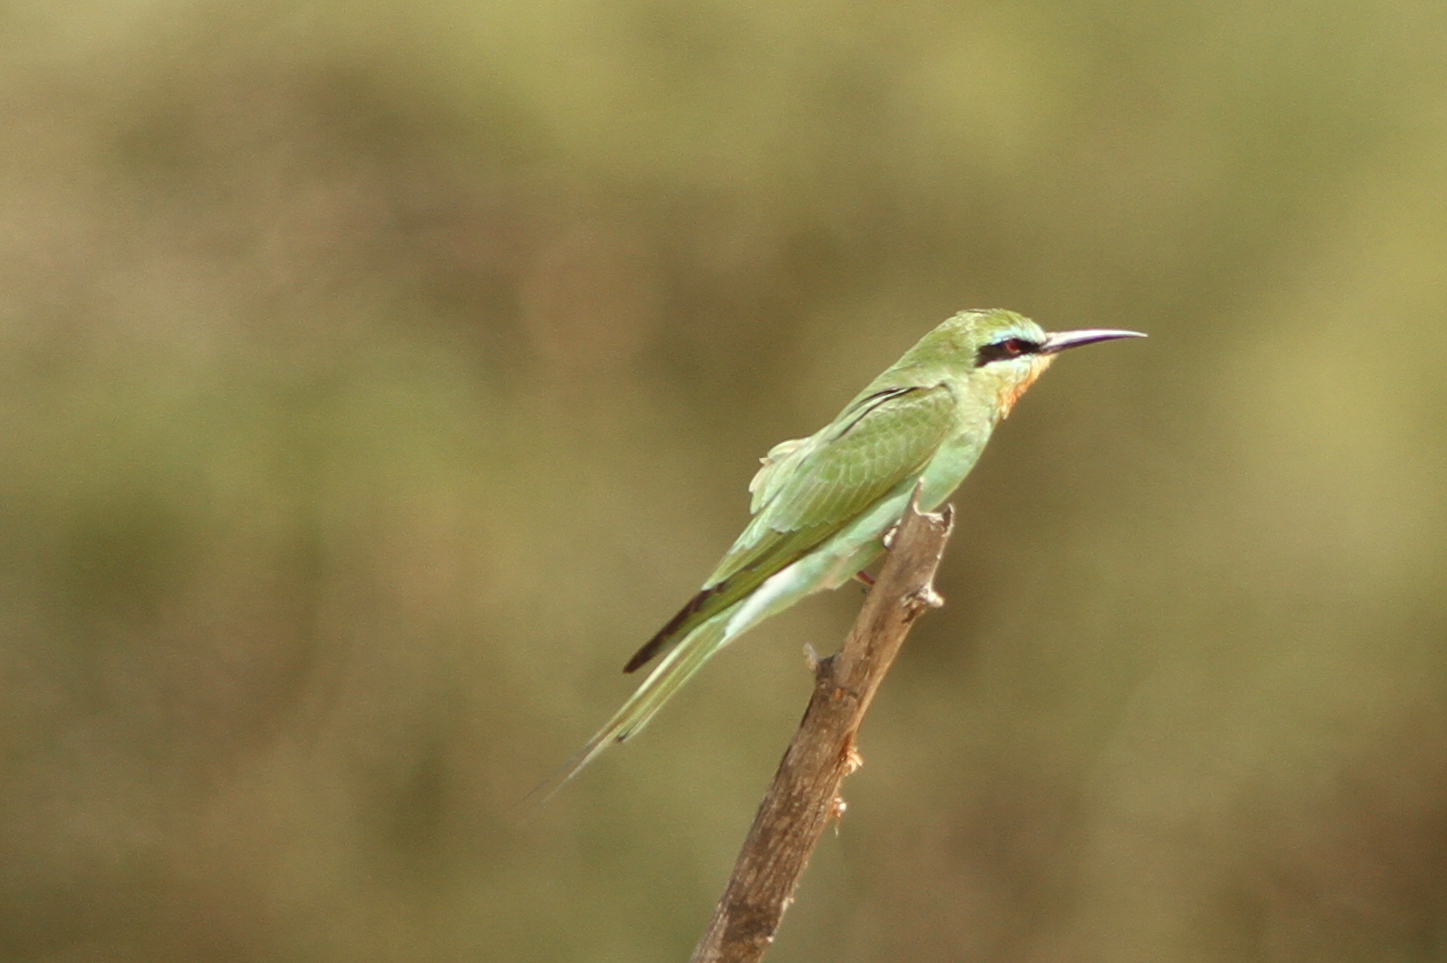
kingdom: Animalia
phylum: Chordata
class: Aves
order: Coraciiformes
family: Meropidae
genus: Merops
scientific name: Merops persicus
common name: Blue-cheeked bee-eater
